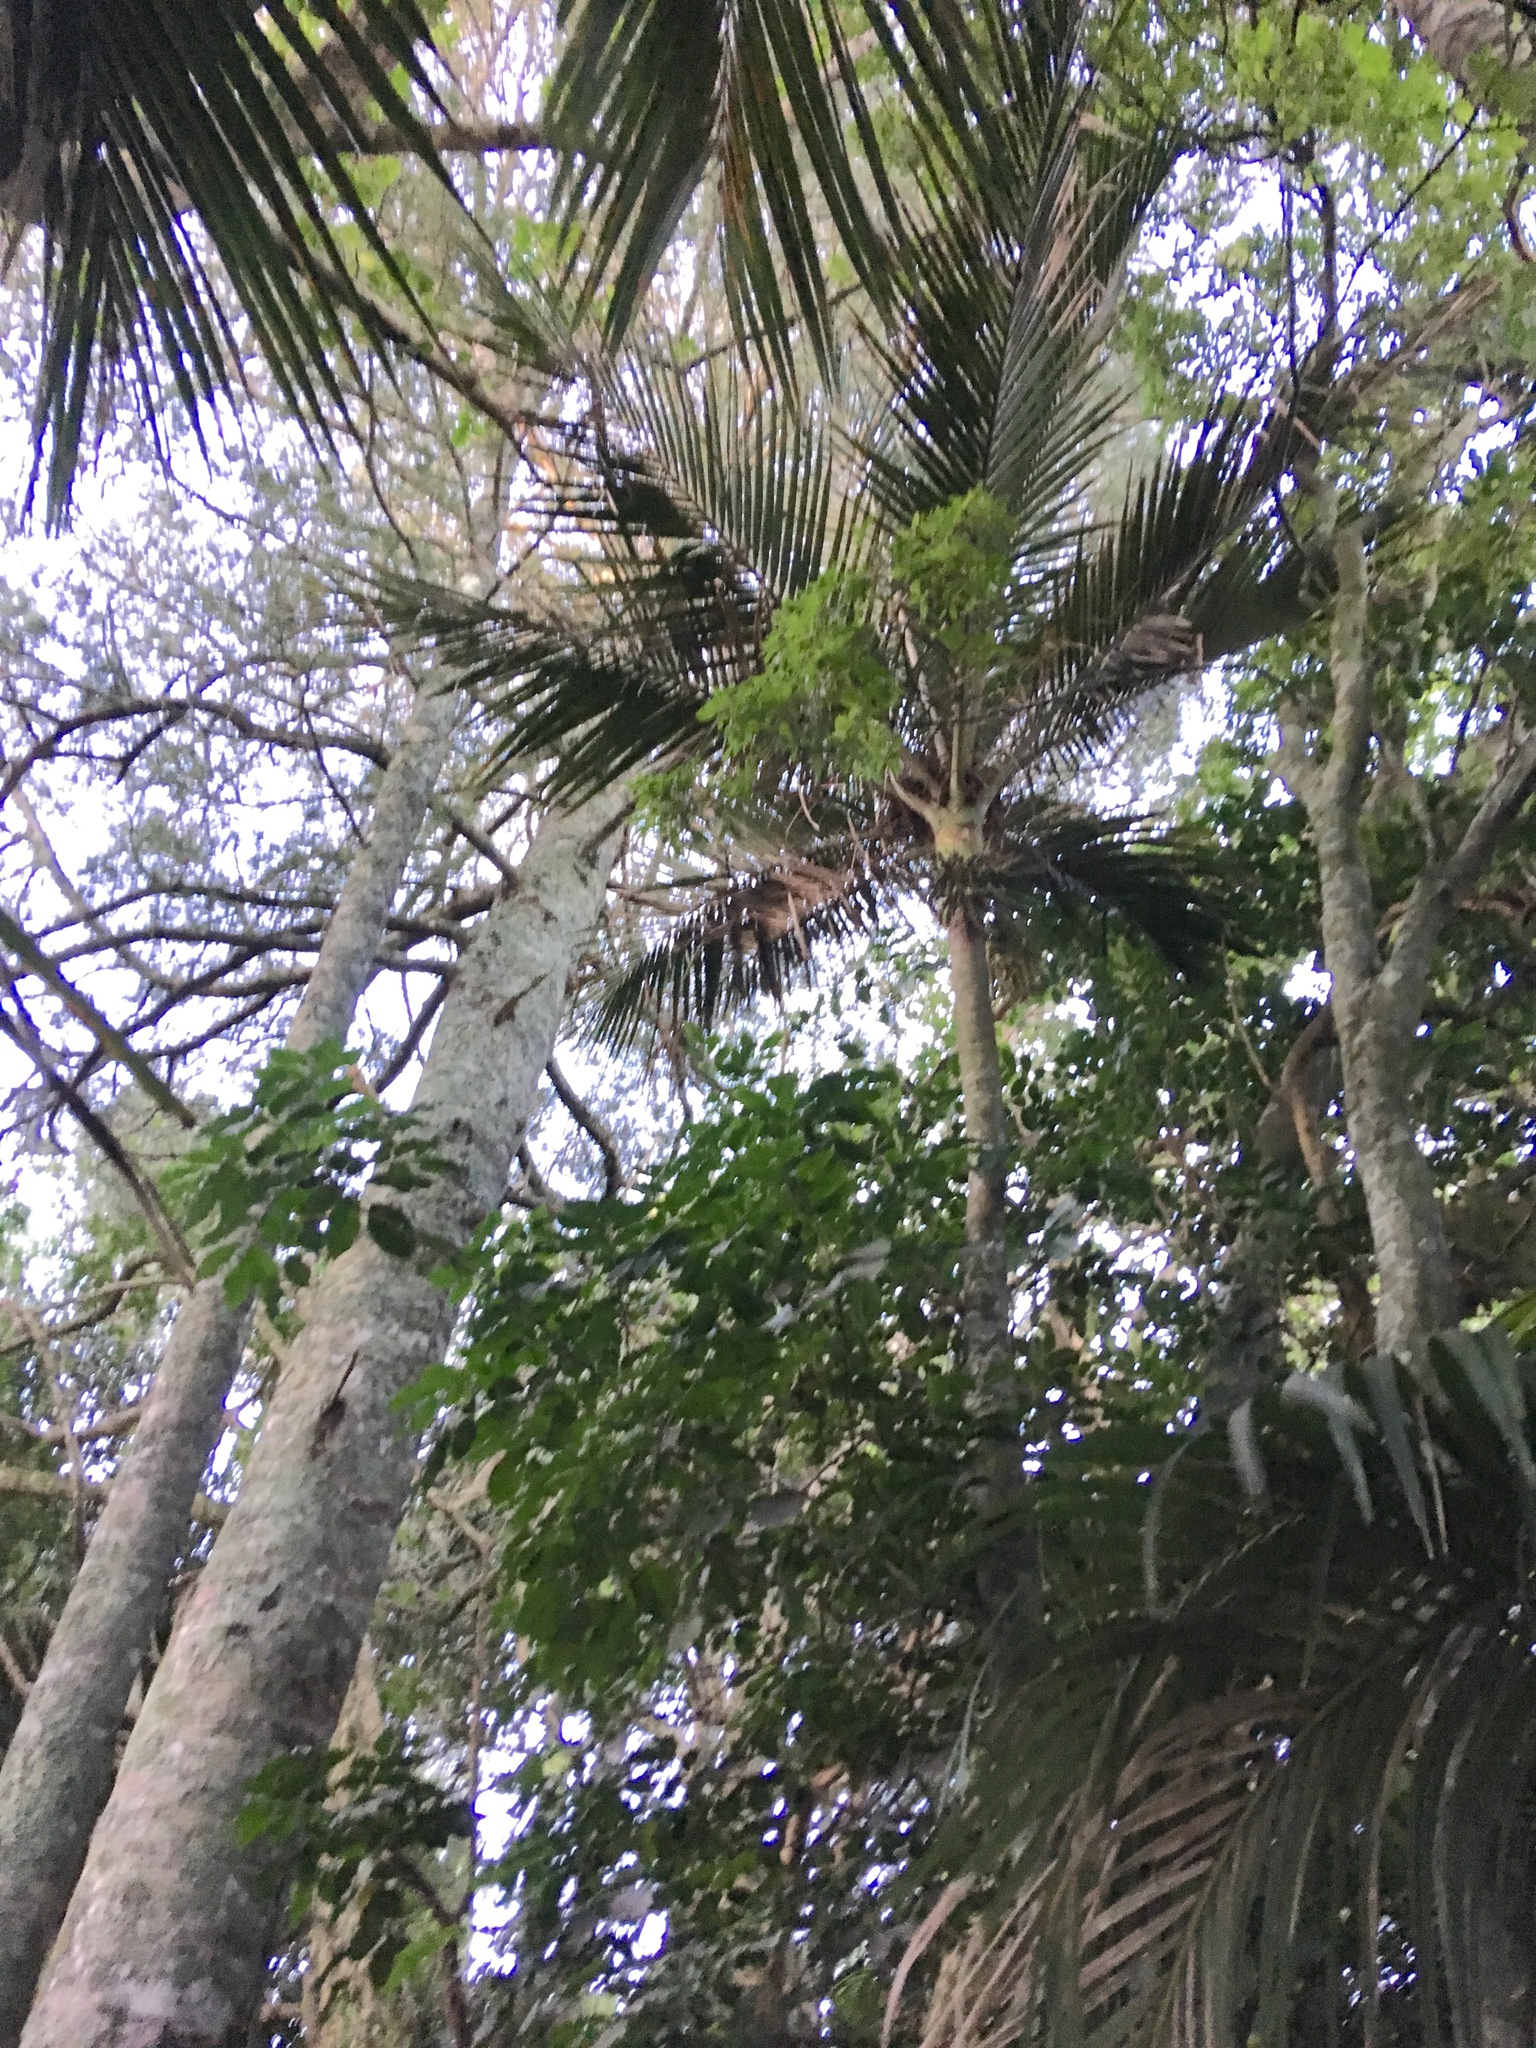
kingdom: Plantae
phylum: Tracheophyta
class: Liliopsida
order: Arecales
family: Arecaceae
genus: Rhopalostylis
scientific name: Rhopalostylis sapida
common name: Feather-duster palm
